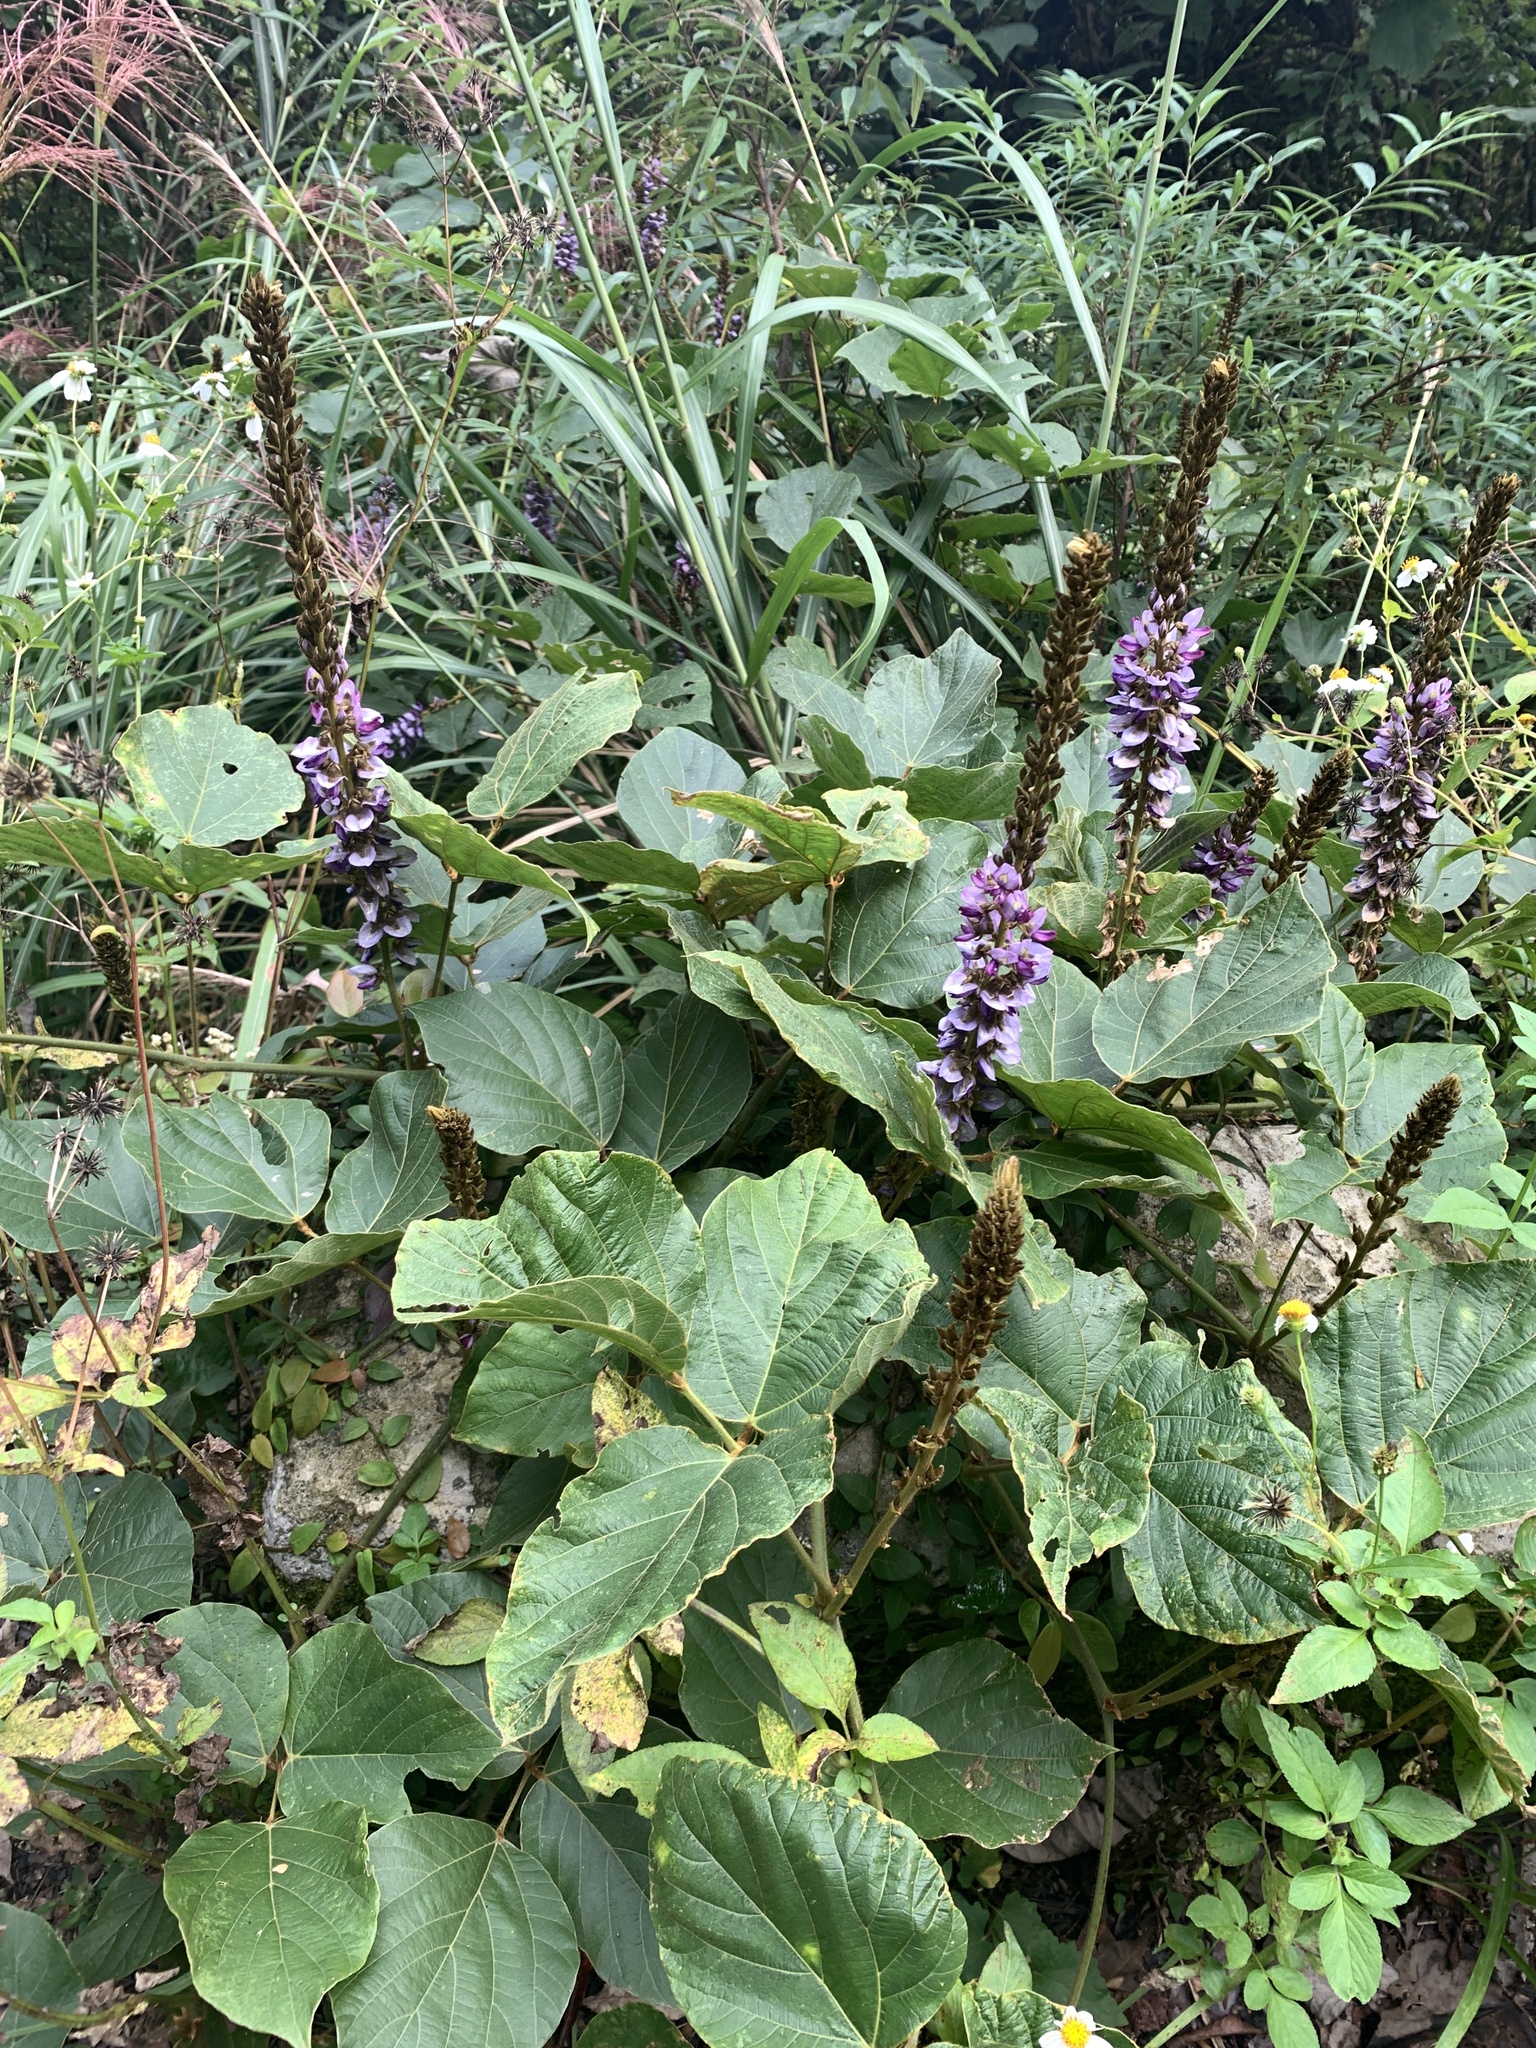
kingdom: Plantae
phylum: Tracheophyta
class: Magnoliopsida
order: Fabales
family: Fabaceae
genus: Pueraria
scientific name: Pueraria montana
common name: Kudzu
